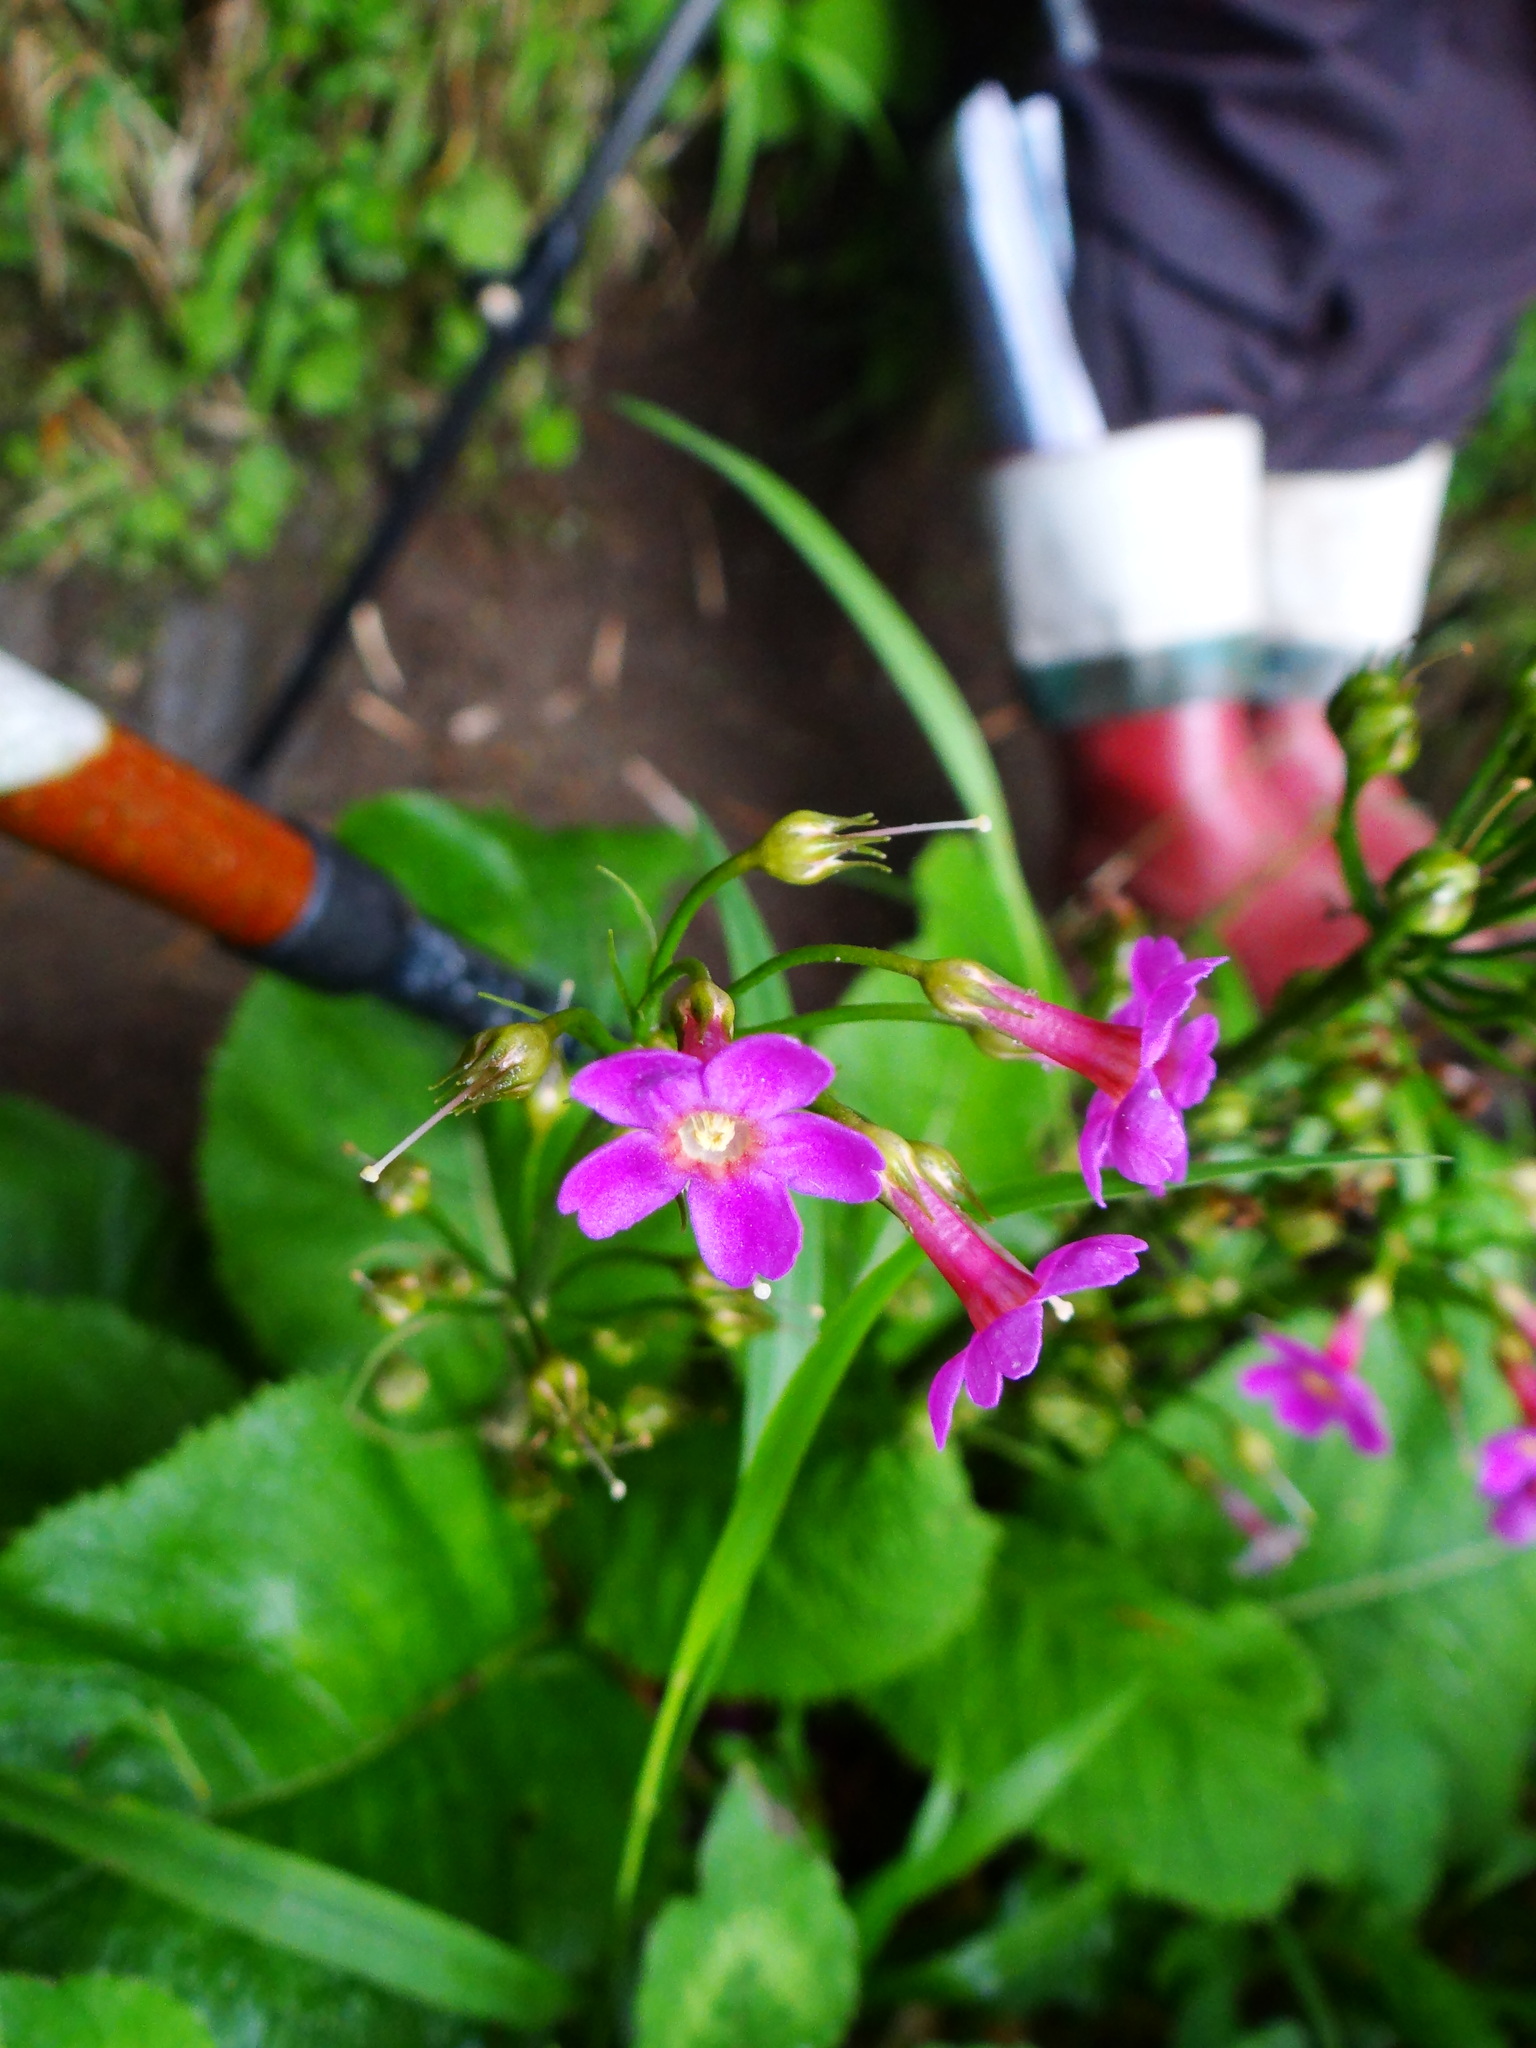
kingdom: Plantae
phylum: Tracheophyta
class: Magnoliopsida
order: Ericales
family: Primulaceae
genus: Primula
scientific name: Primula miyabeana
